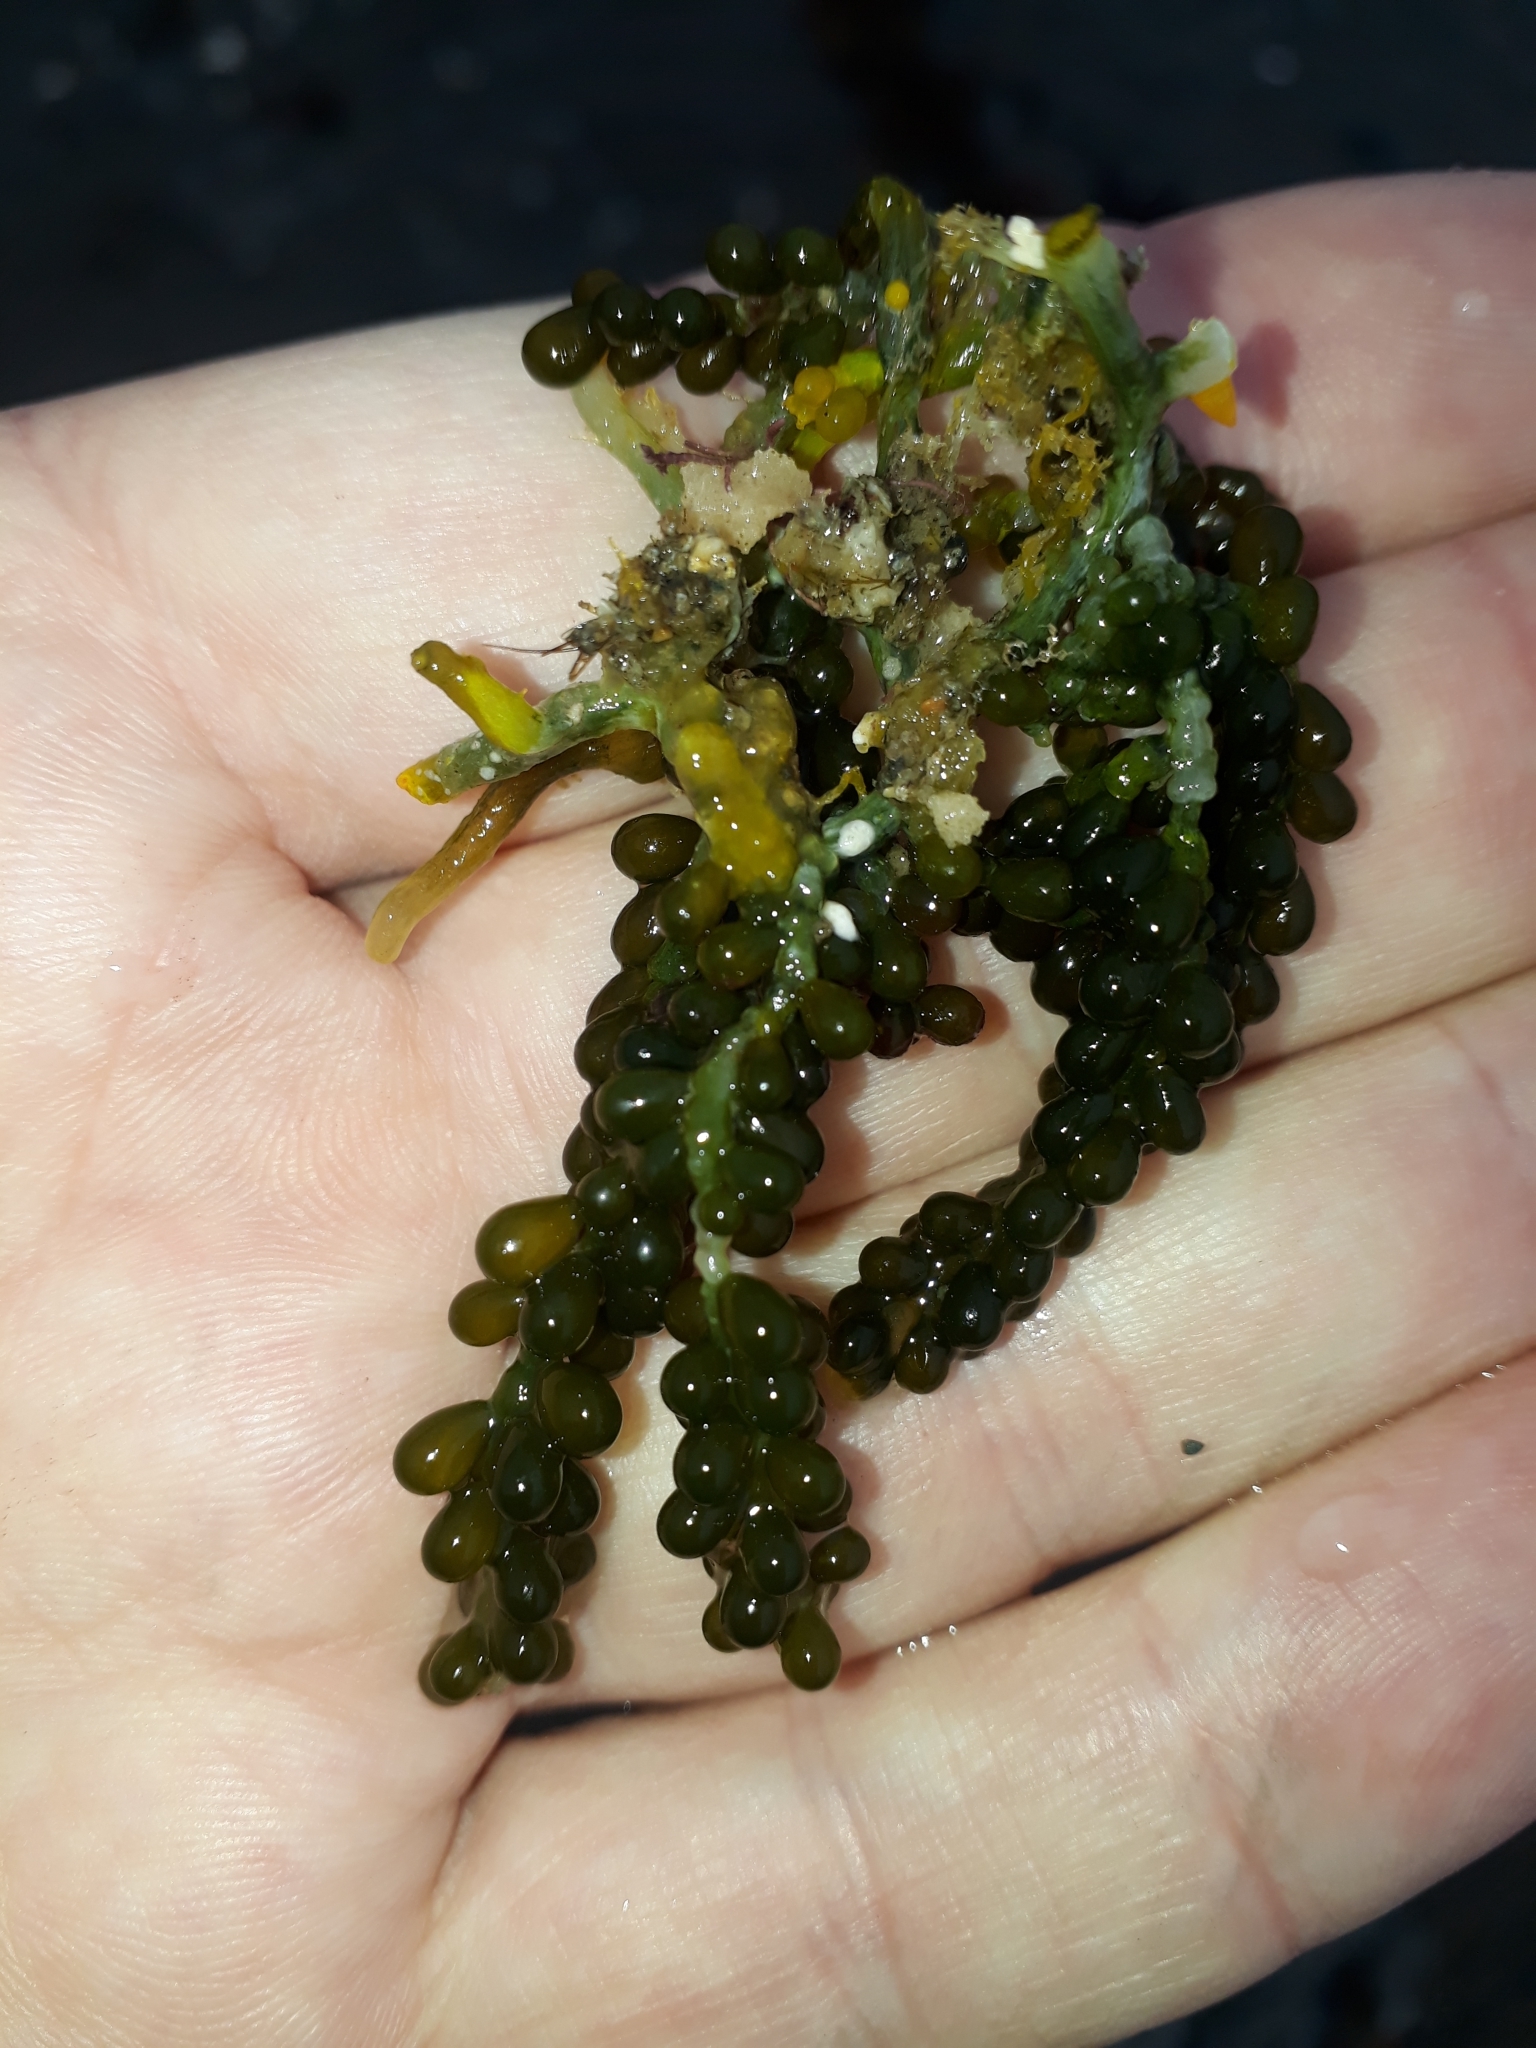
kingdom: Plantae
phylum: Chlorophyta
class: Ulvophyceae
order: Bryopsidales
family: Caulerpaceae
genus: Caulerpa
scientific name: Caulerpa geminata
